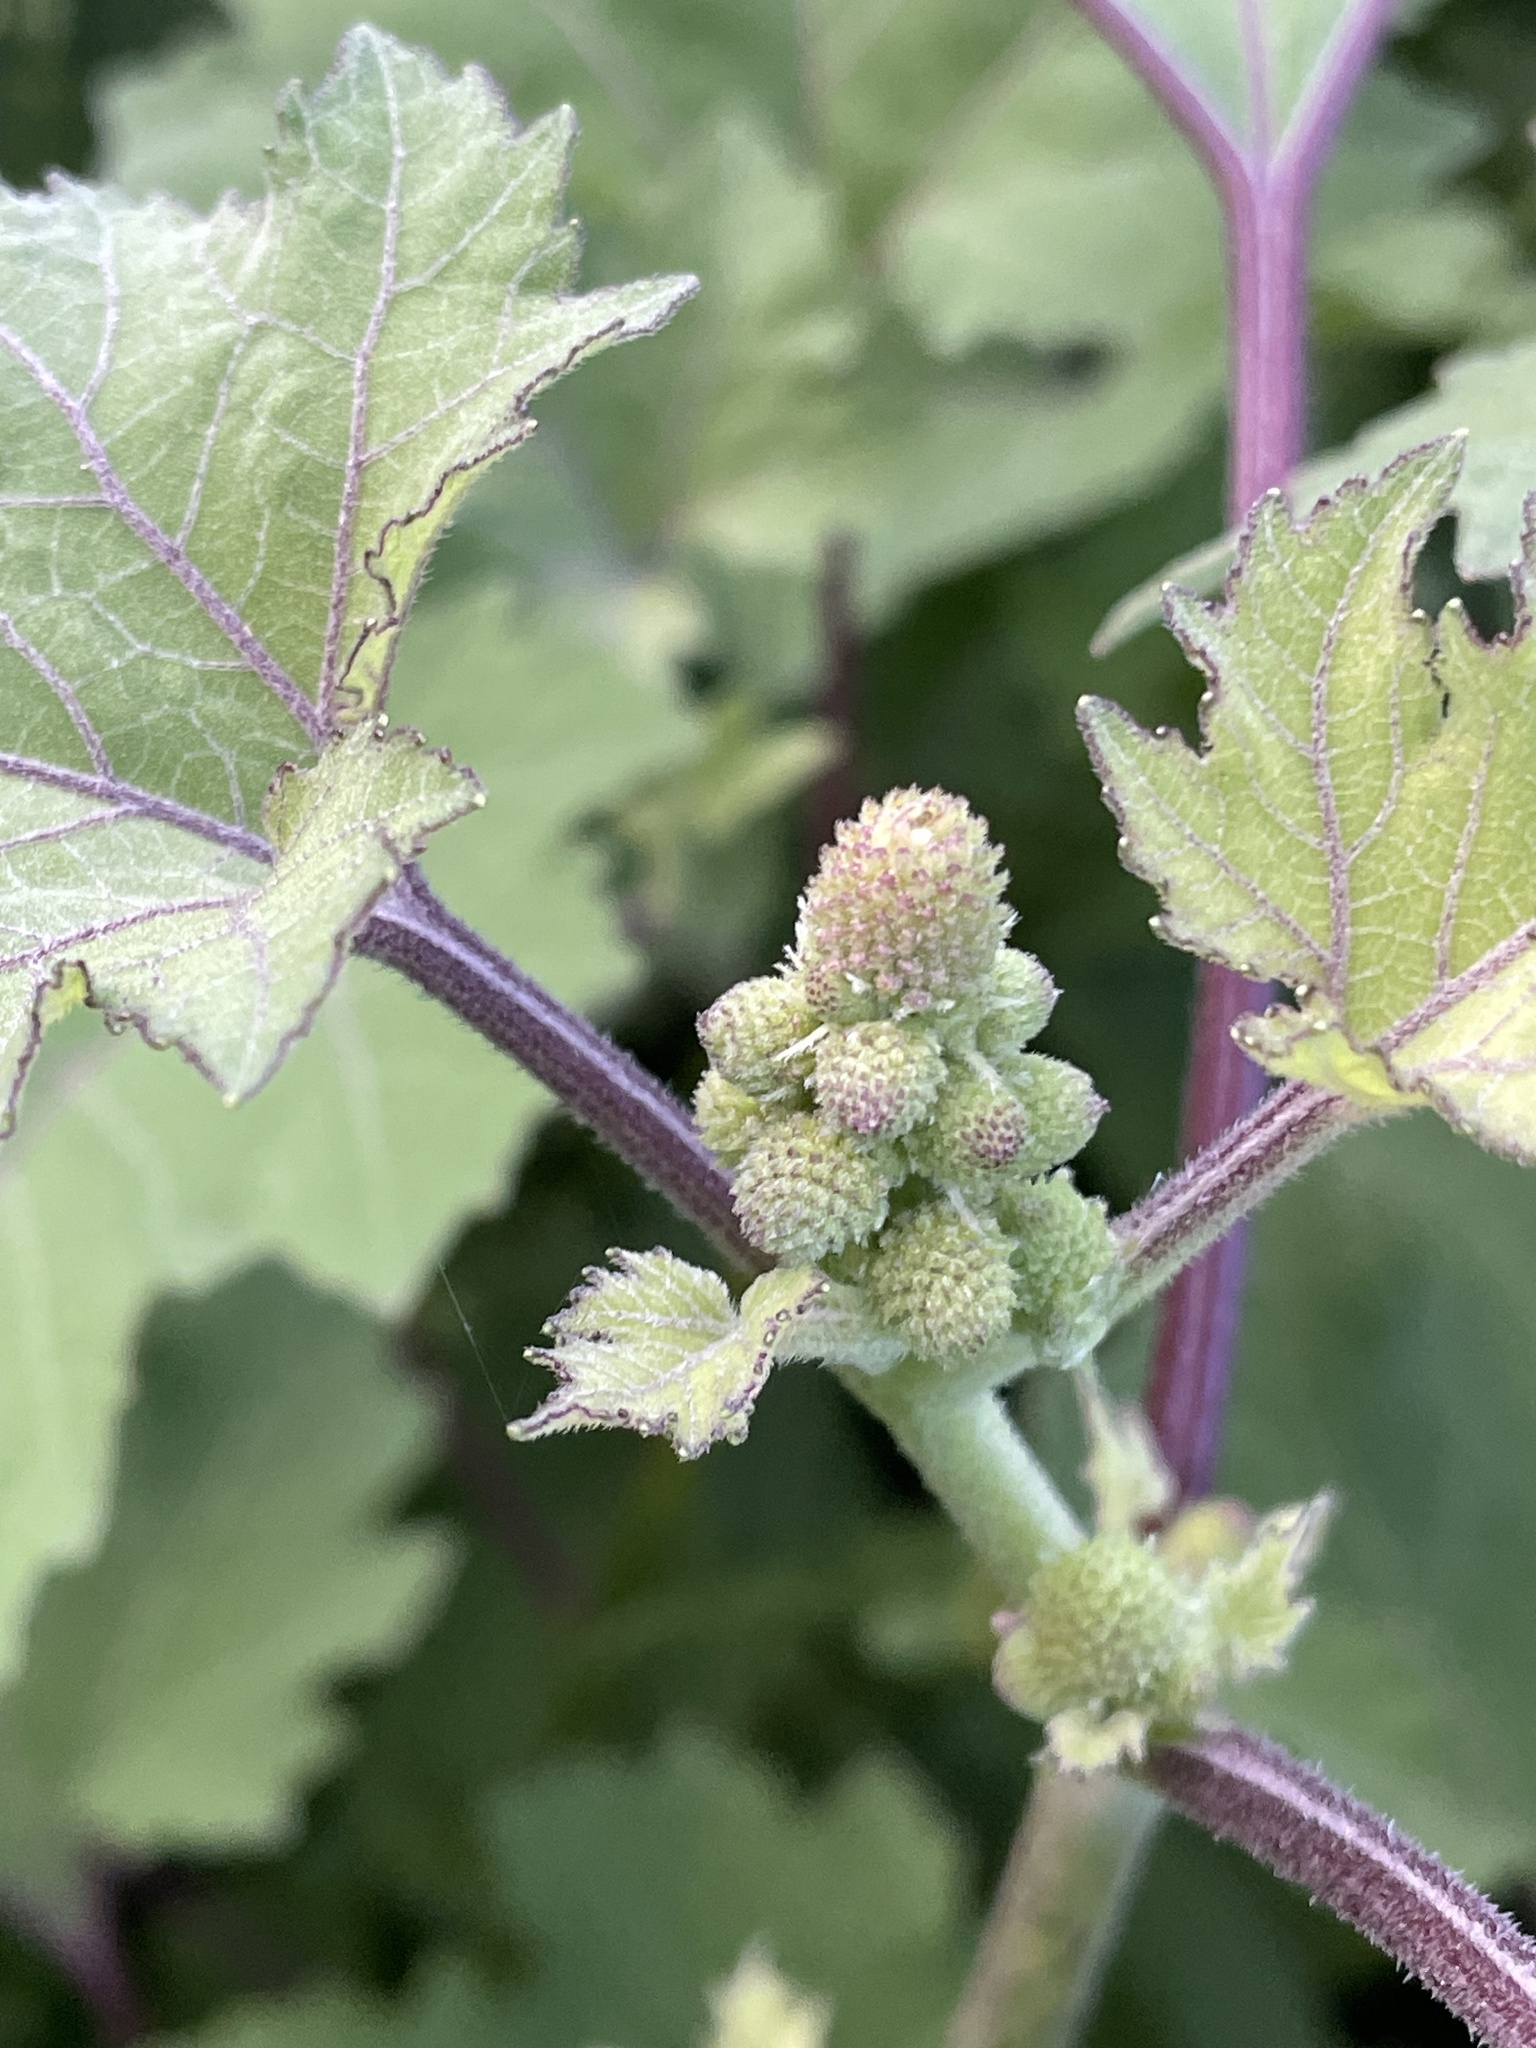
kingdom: Plantae
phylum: Tracheophyta
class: Magnoliopsida
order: Asterales
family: Asteraceae
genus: Xanthium
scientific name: Xanthium strumarium
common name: Rough cocklebur
